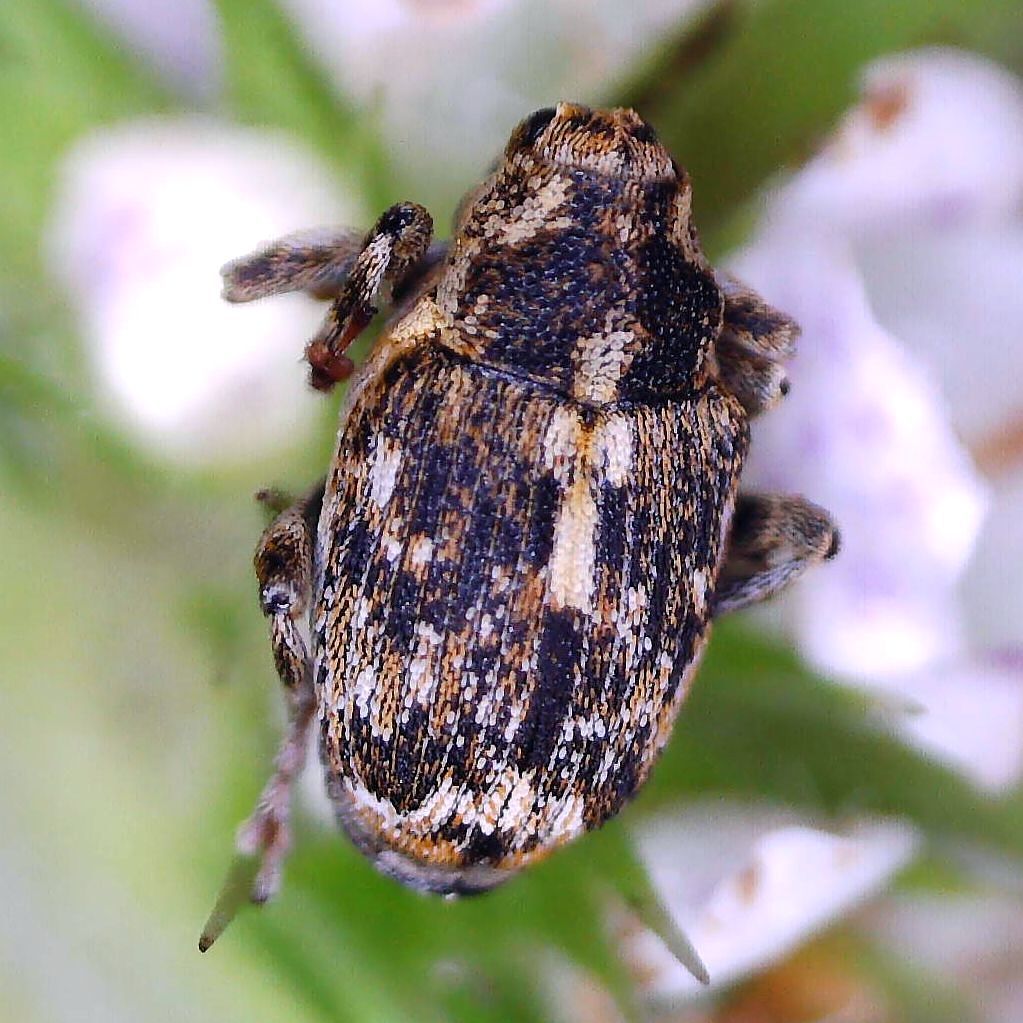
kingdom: Animalia
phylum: Arthropoda
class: Insecta
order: Coleoptera
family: Curculionidae
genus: Datonychus
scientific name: Datonychus melanostictus
